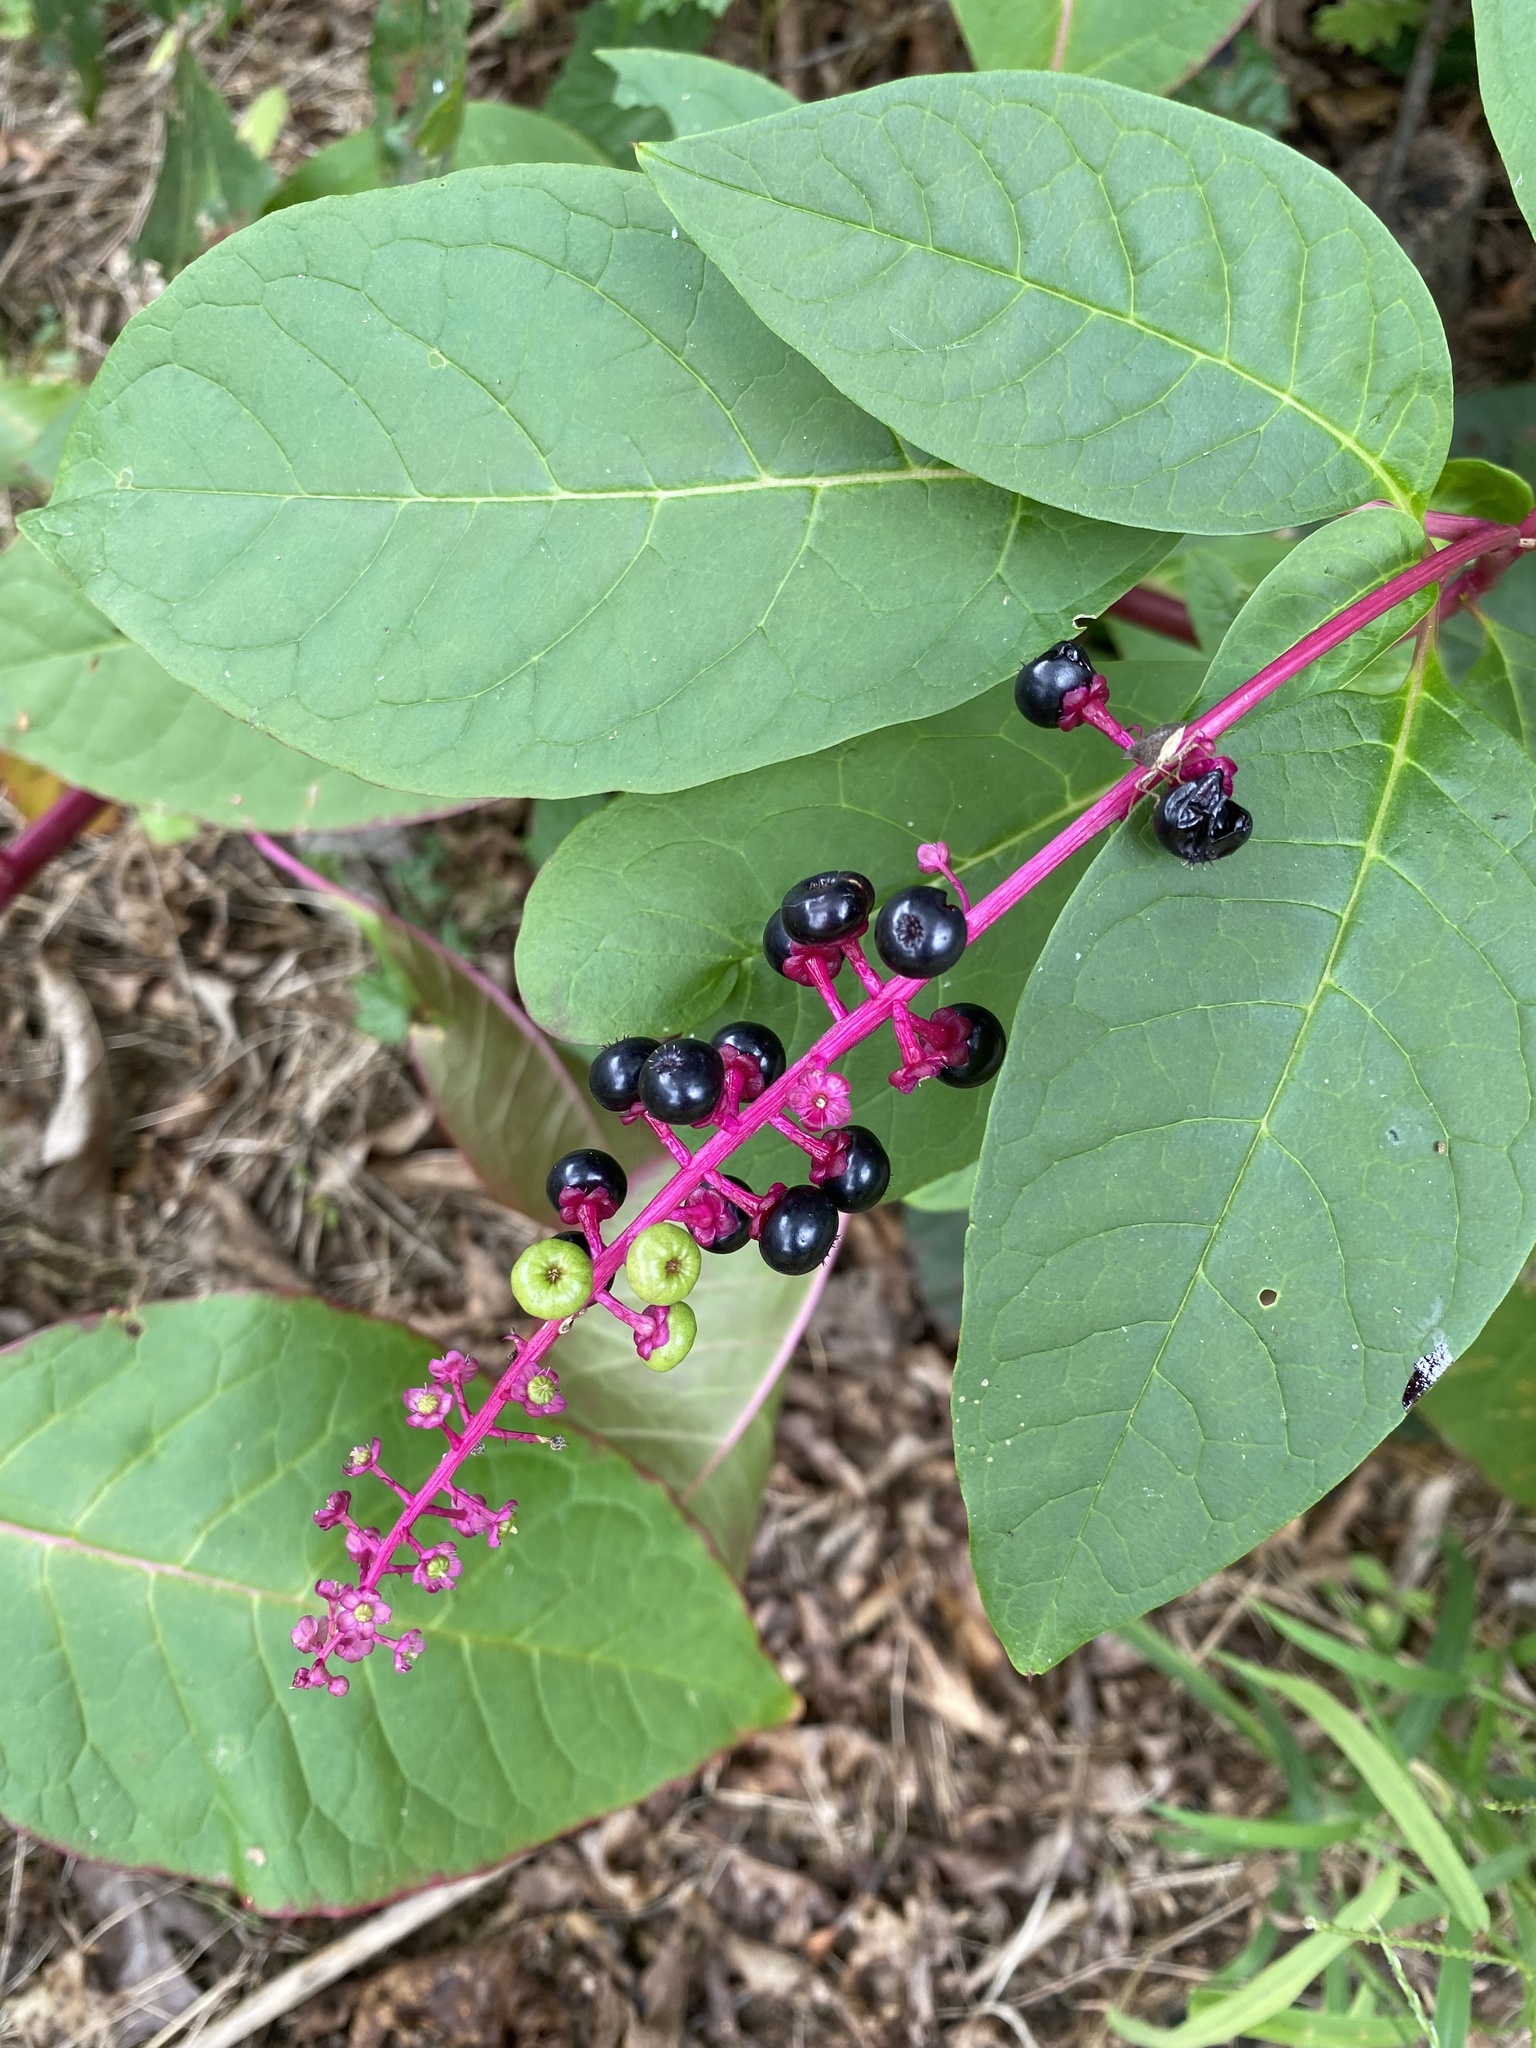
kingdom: Plantae
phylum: Tracheophyta
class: Magnoliopsida
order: Caryophyllales
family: Phytolaccaceae
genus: Phytolacca
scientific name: Phytolacca americana
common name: American pokeweed
